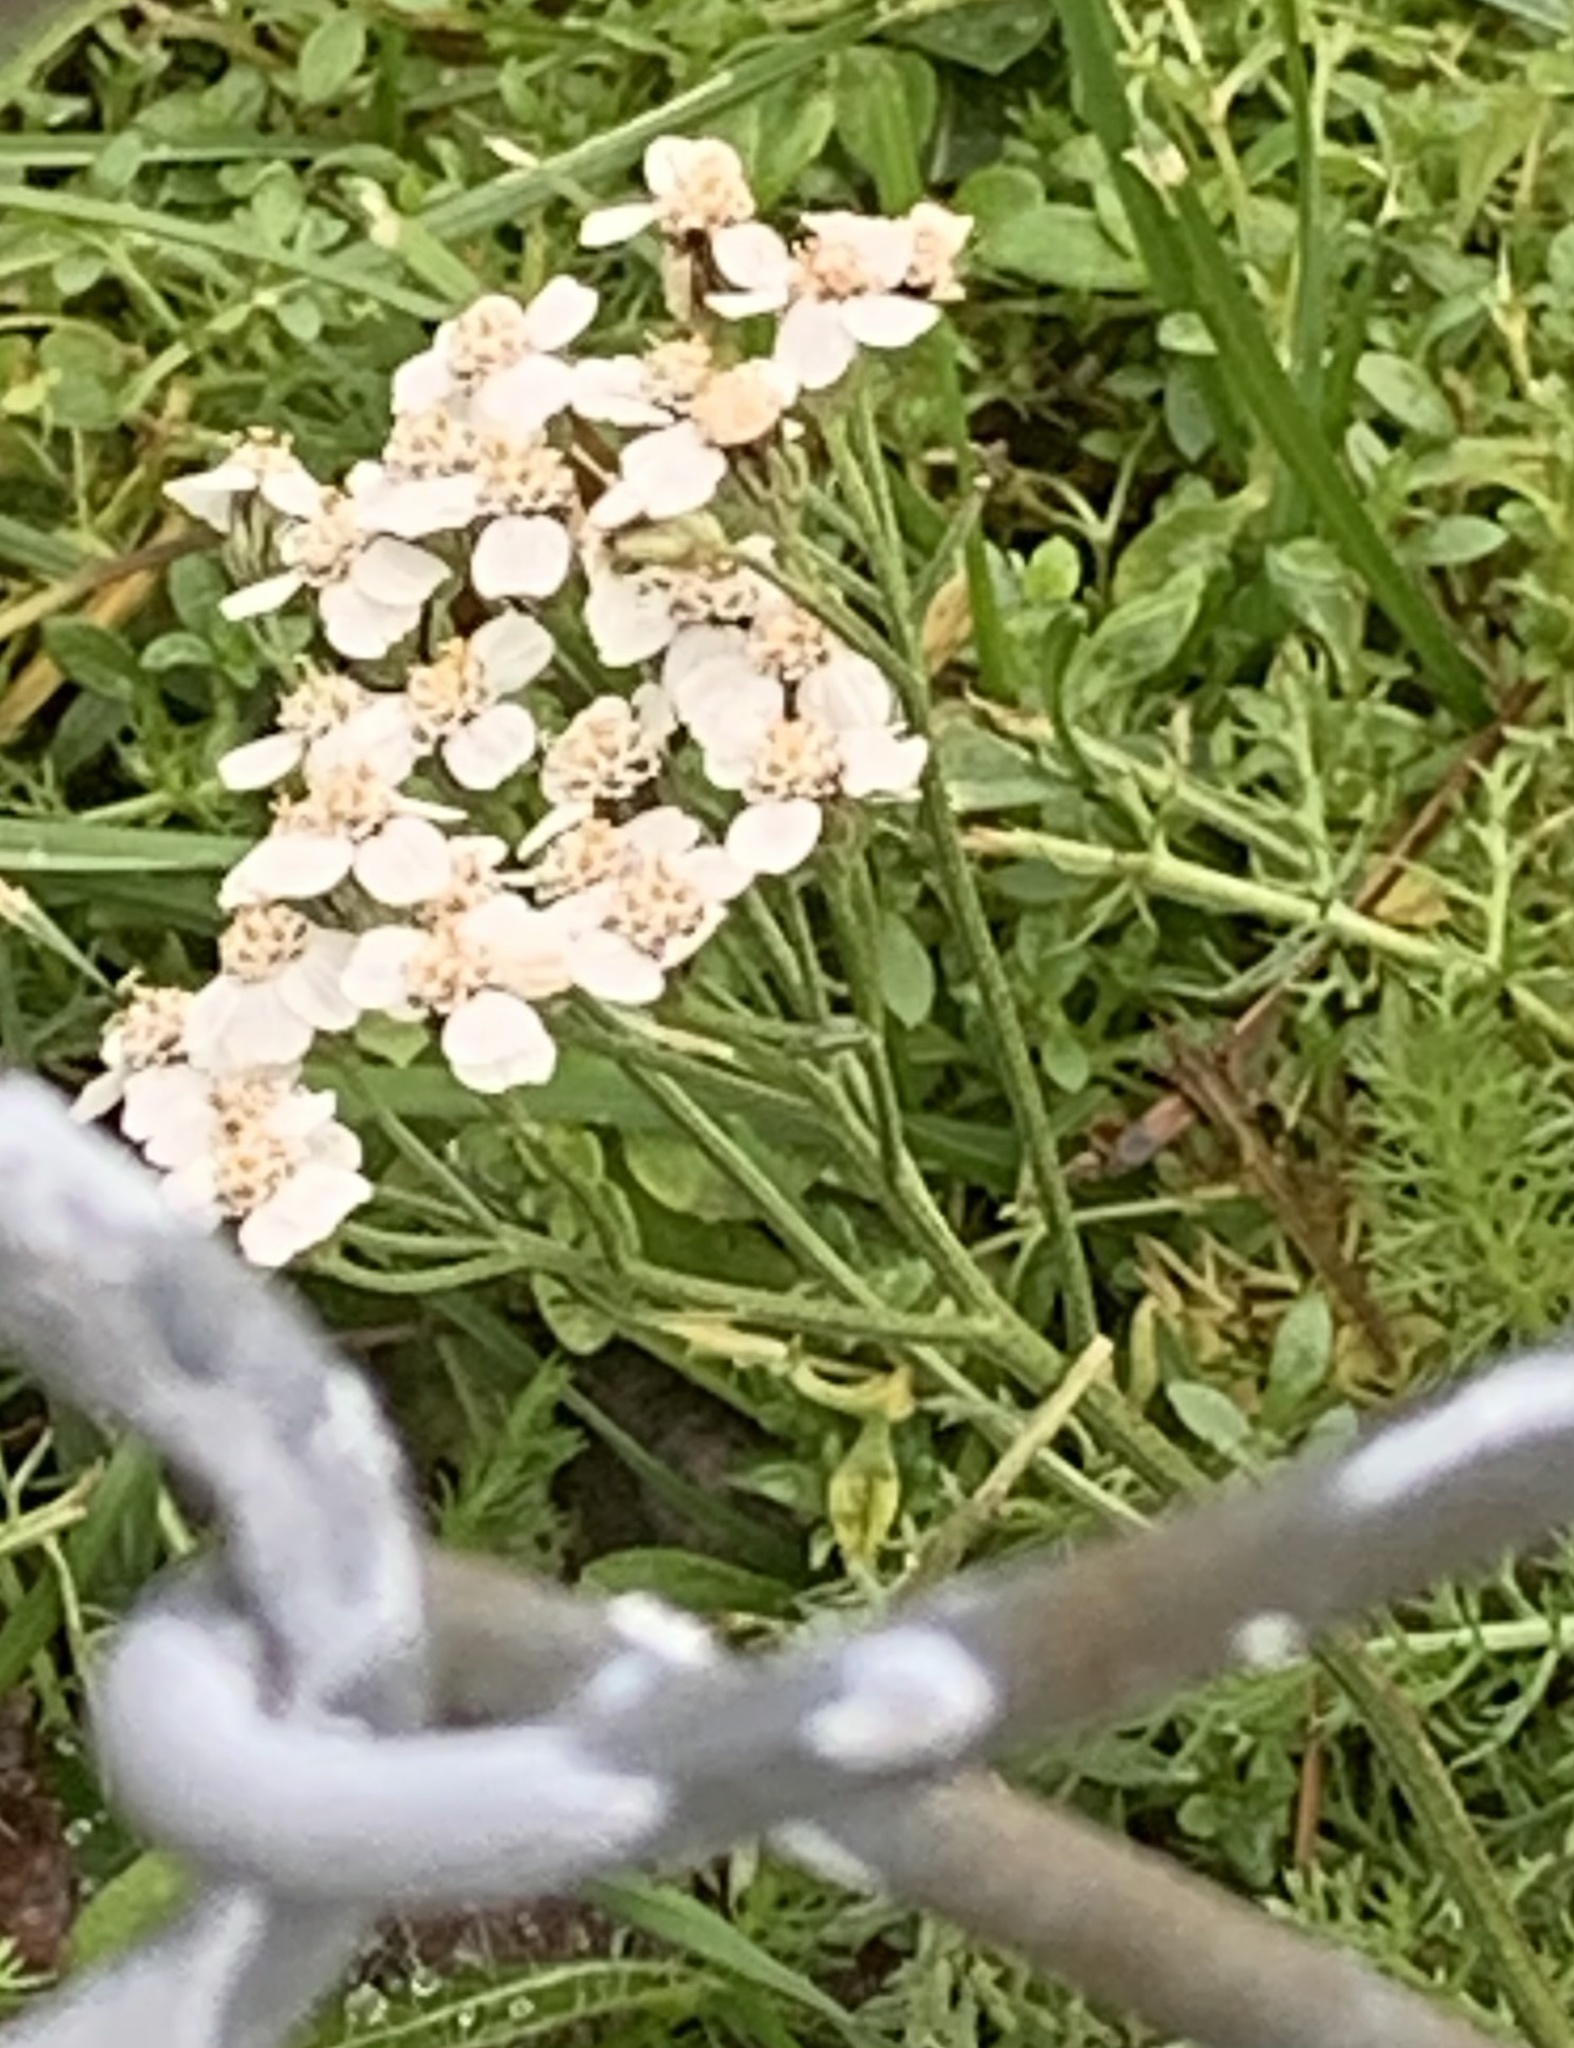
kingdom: Plantae
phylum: Tracheophyta
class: Magnoliopsida
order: Asterales
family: Asteraceae
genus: Achillea
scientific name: Achillea millefolium
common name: Yarrow
